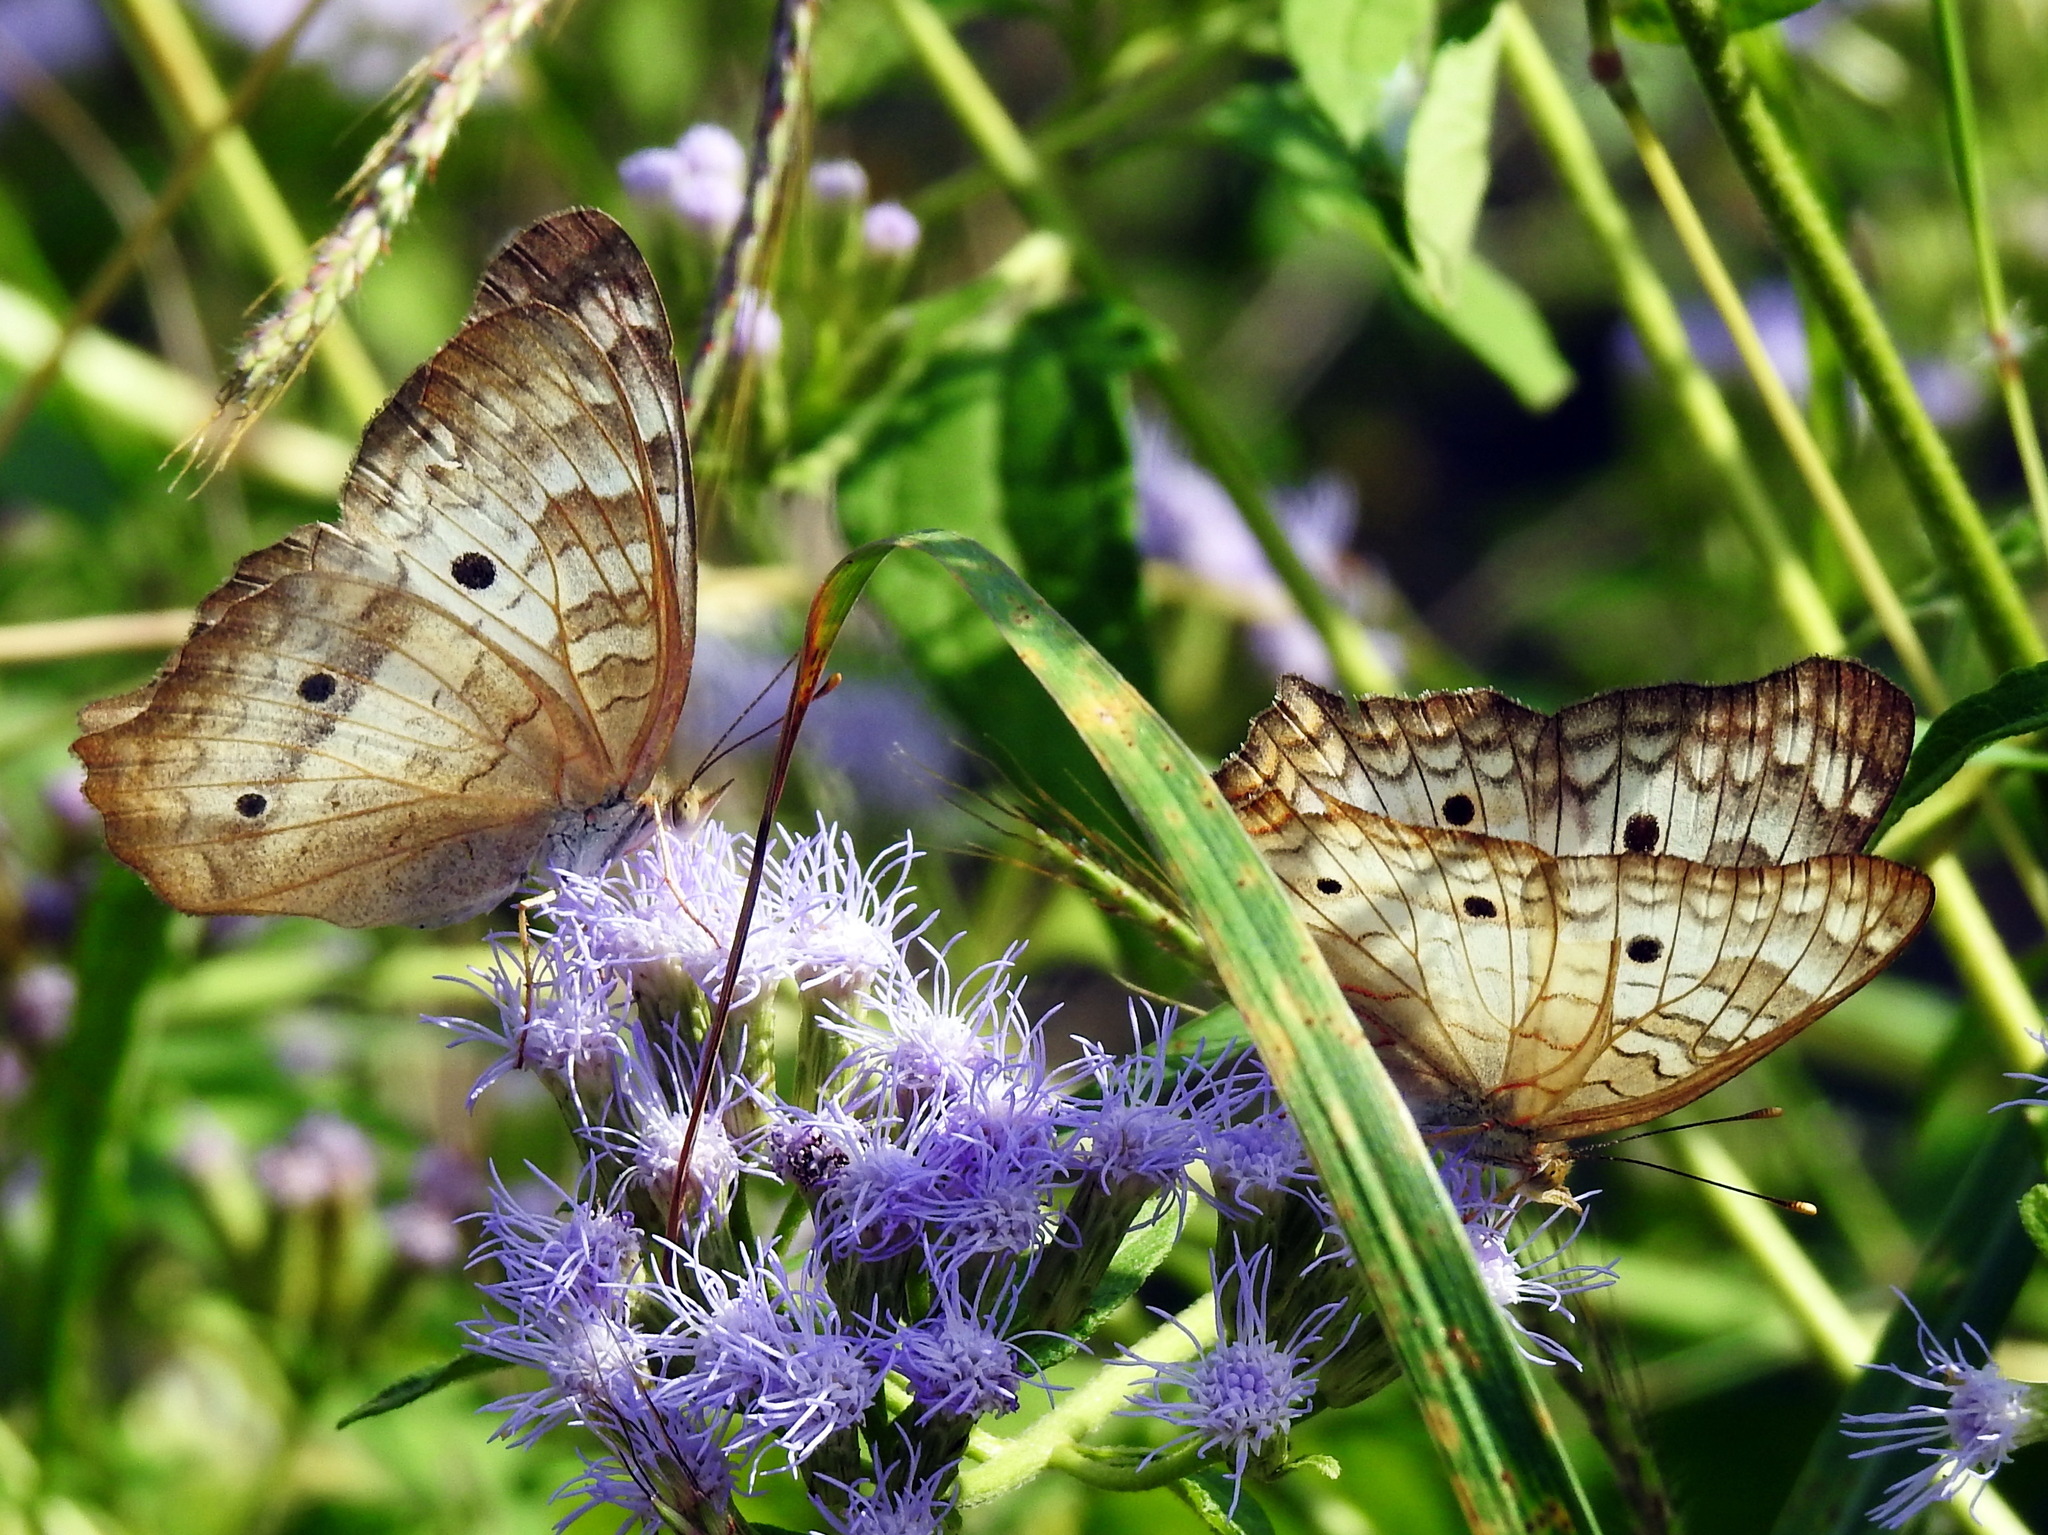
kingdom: Animalia
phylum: Arthropoda
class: Insecta
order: Lepidoptera
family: Nymphalidae
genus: Anartia
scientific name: Anartia jatrophae
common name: White peacock
